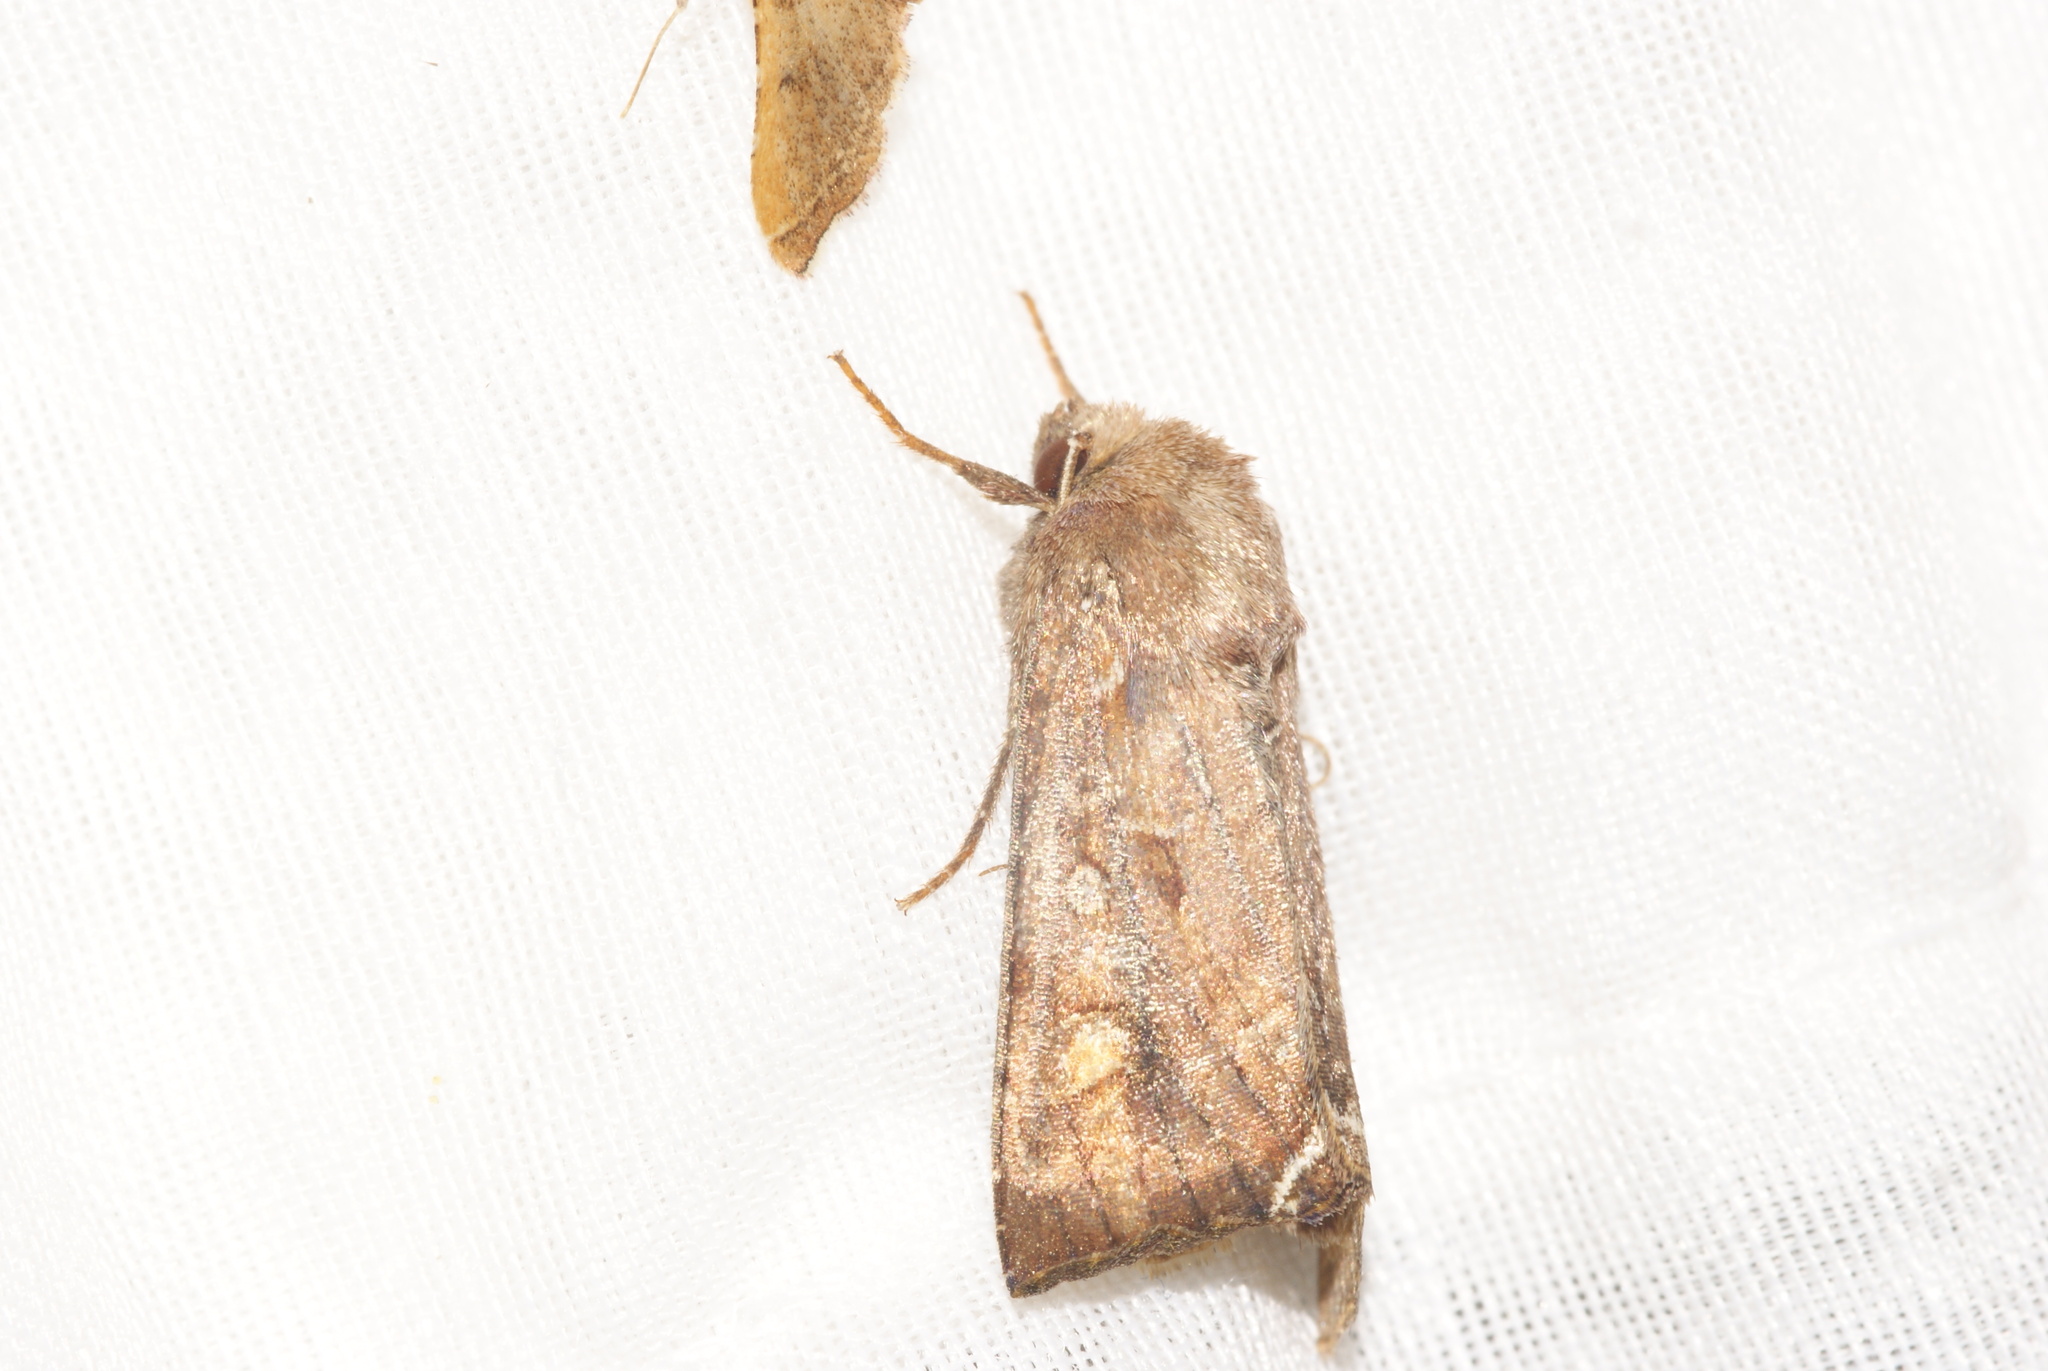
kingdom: Animalia
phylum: Arthropoda
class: Insecta
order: Lepidoptera
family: Noctuidae
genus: Lacanobia
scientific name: Lacanobia oleracea
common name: Bright-line brown-eye
